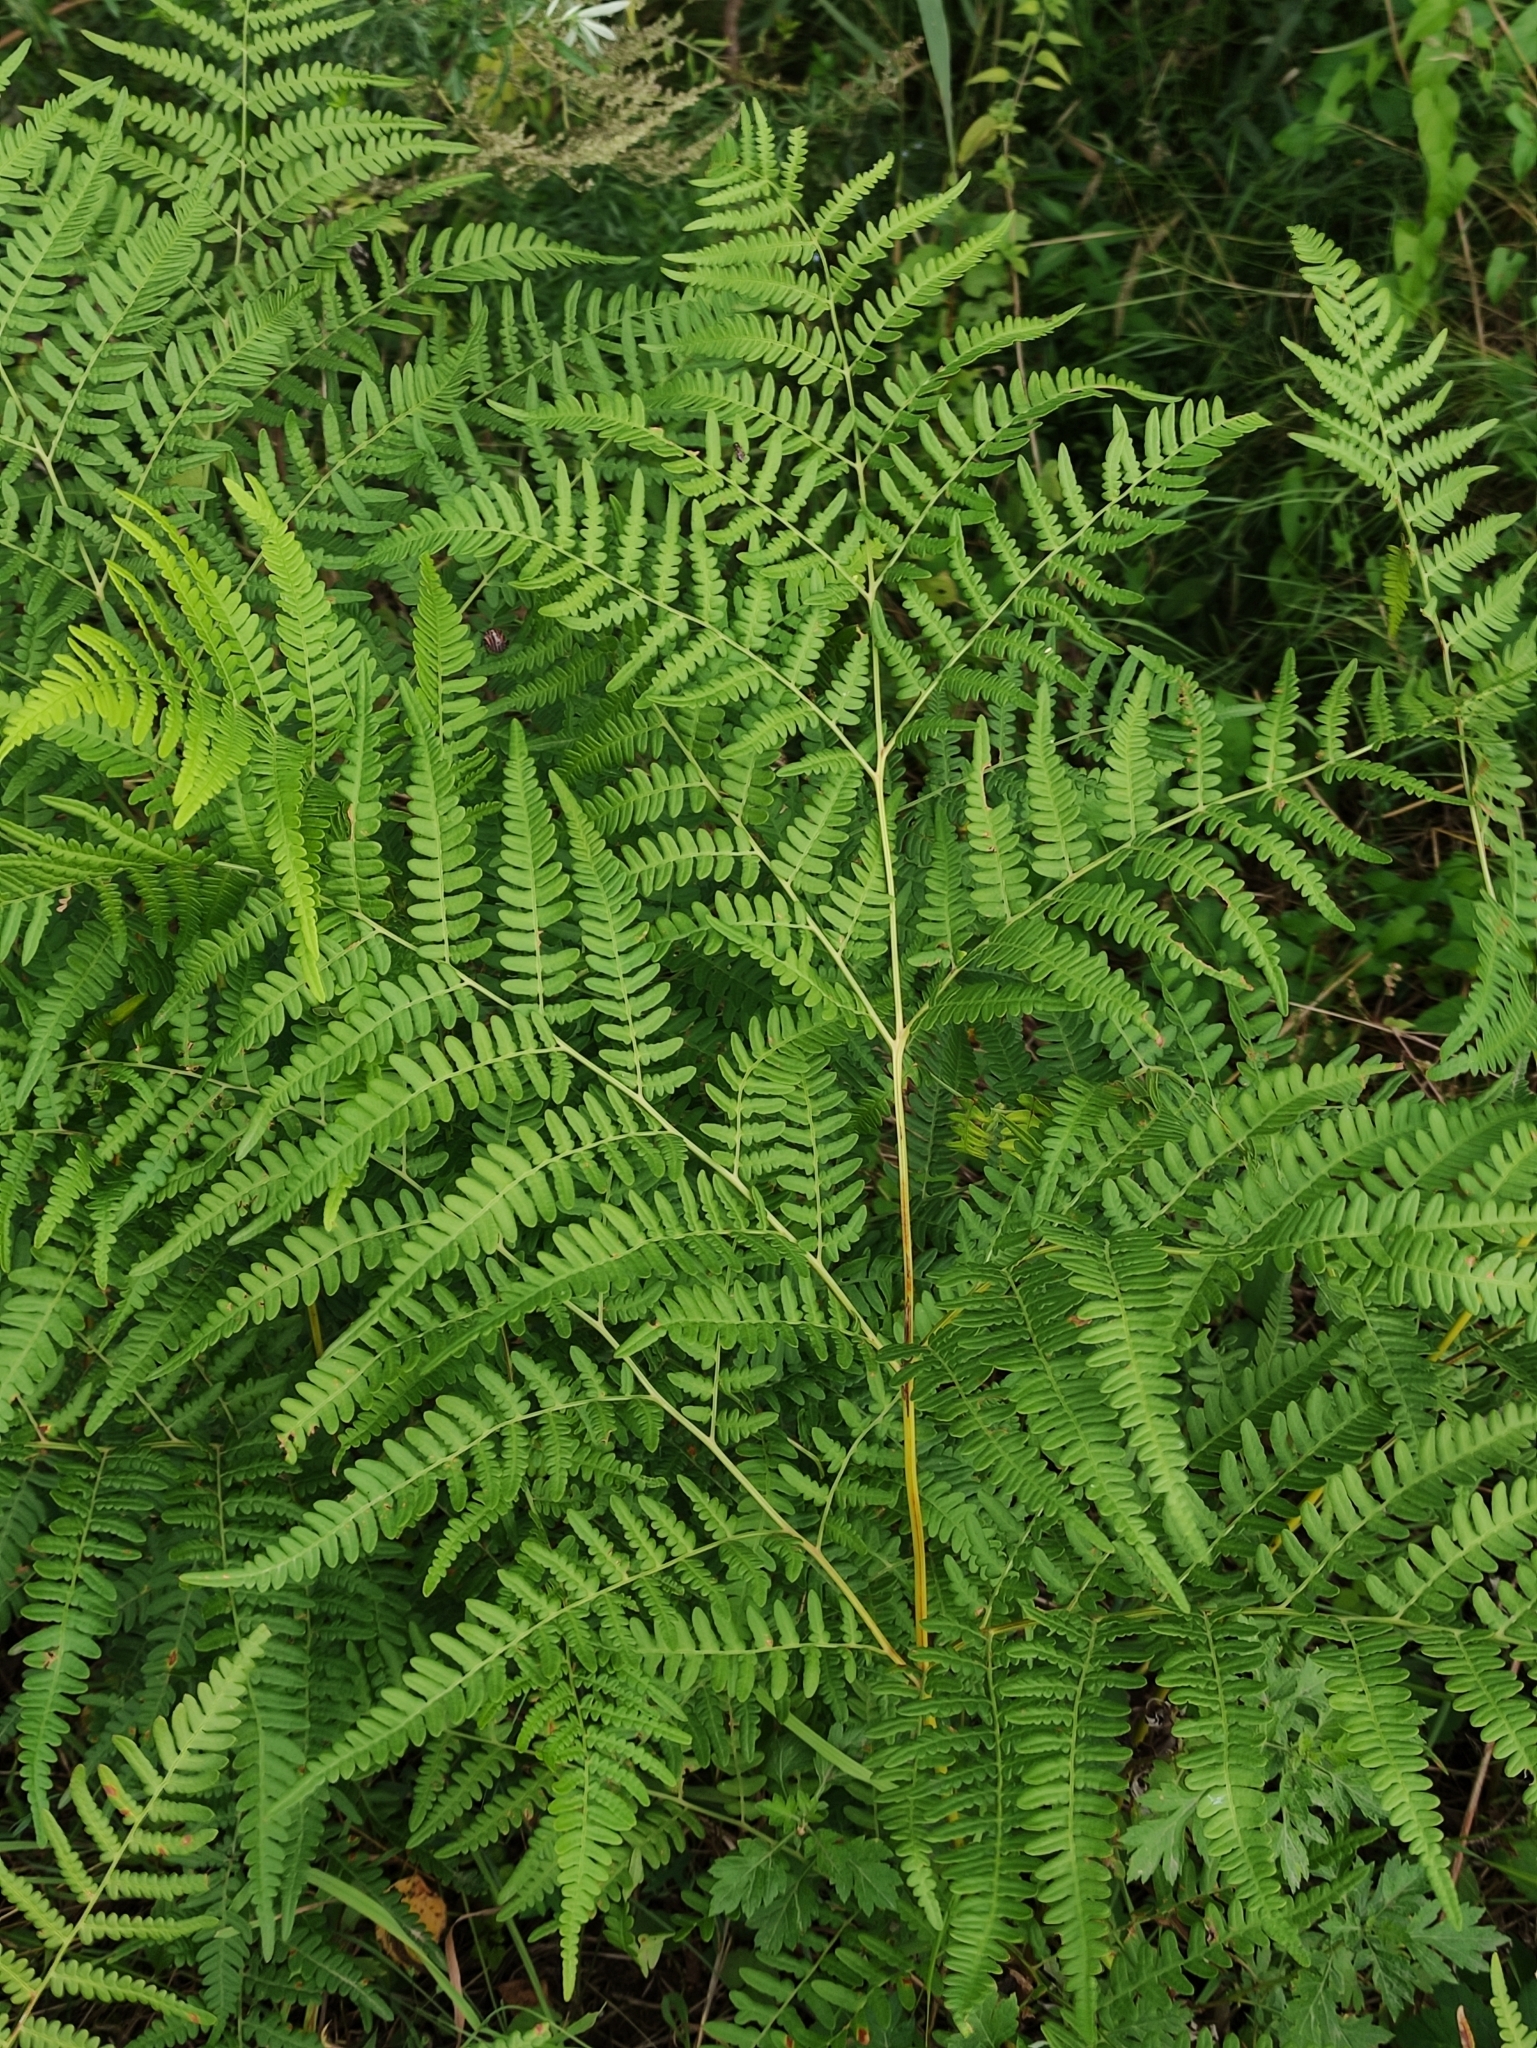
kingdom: Plantae
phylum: Tracheophyta
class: Polypodiopsida
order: Polypodiales
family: Dennstaedtiaceae
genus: Pteridium
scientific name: Pteridium aquilinum
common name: Bracken
